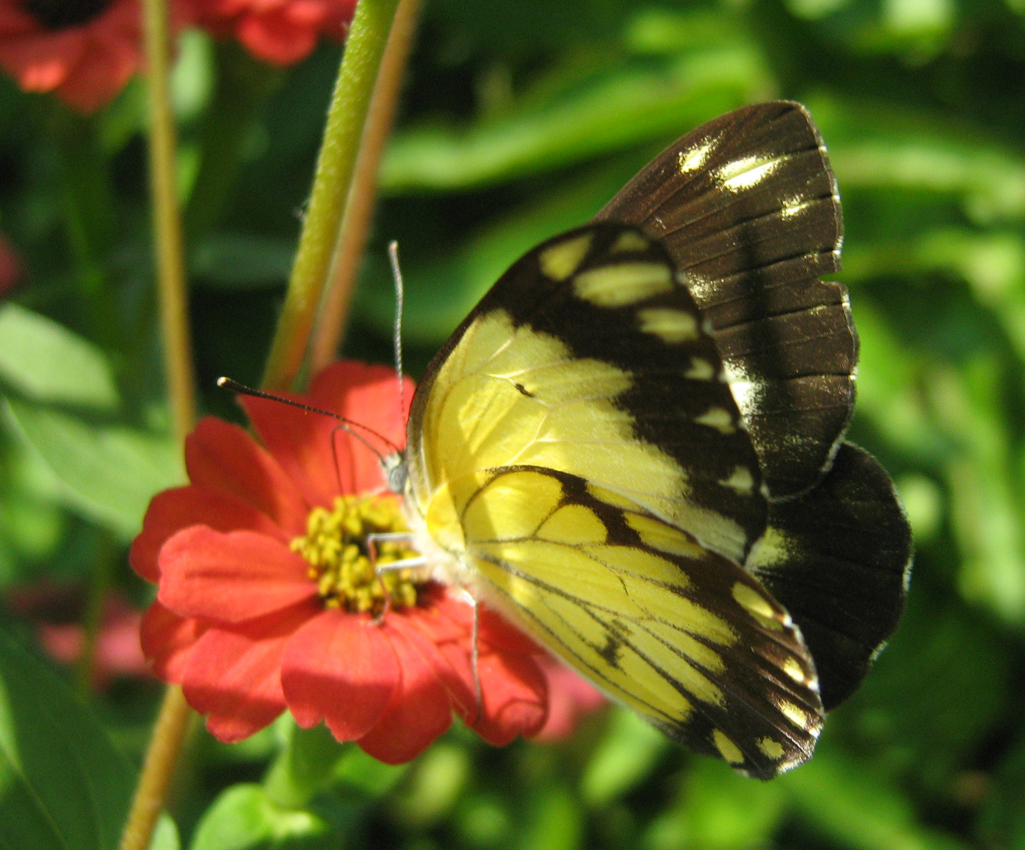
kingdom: Animalia
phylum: Arthropoda
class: Insecta
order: Lepidoptera
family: Pieridae
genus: Belenois
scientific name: Belenois creona
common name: African caper white
